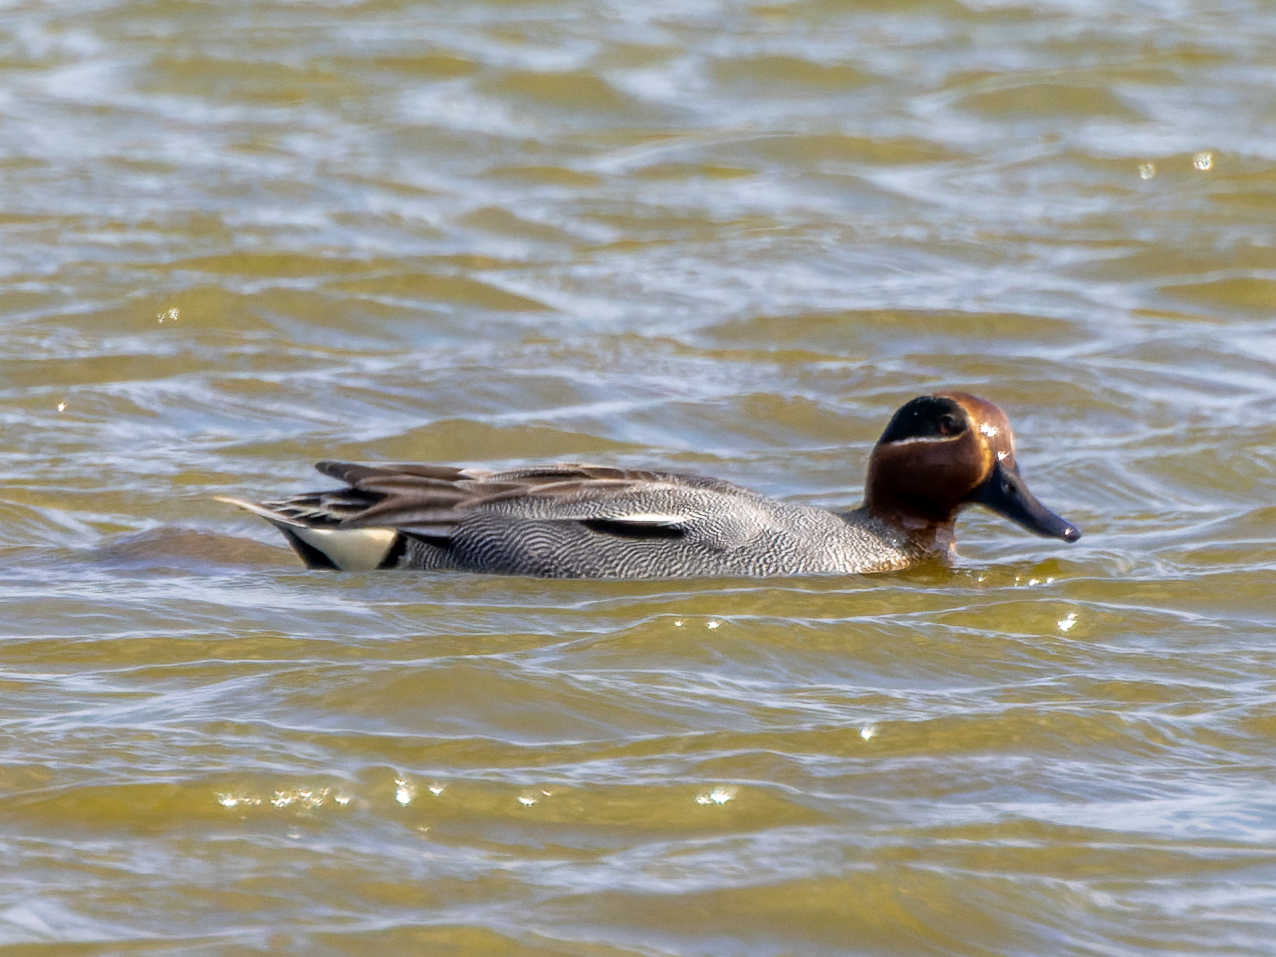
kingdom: Animalia
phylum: Chordata
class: Aves
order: Anseriformes
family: Anatidae
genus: Anas
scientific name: Anas crecca
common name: Eurasian teal
